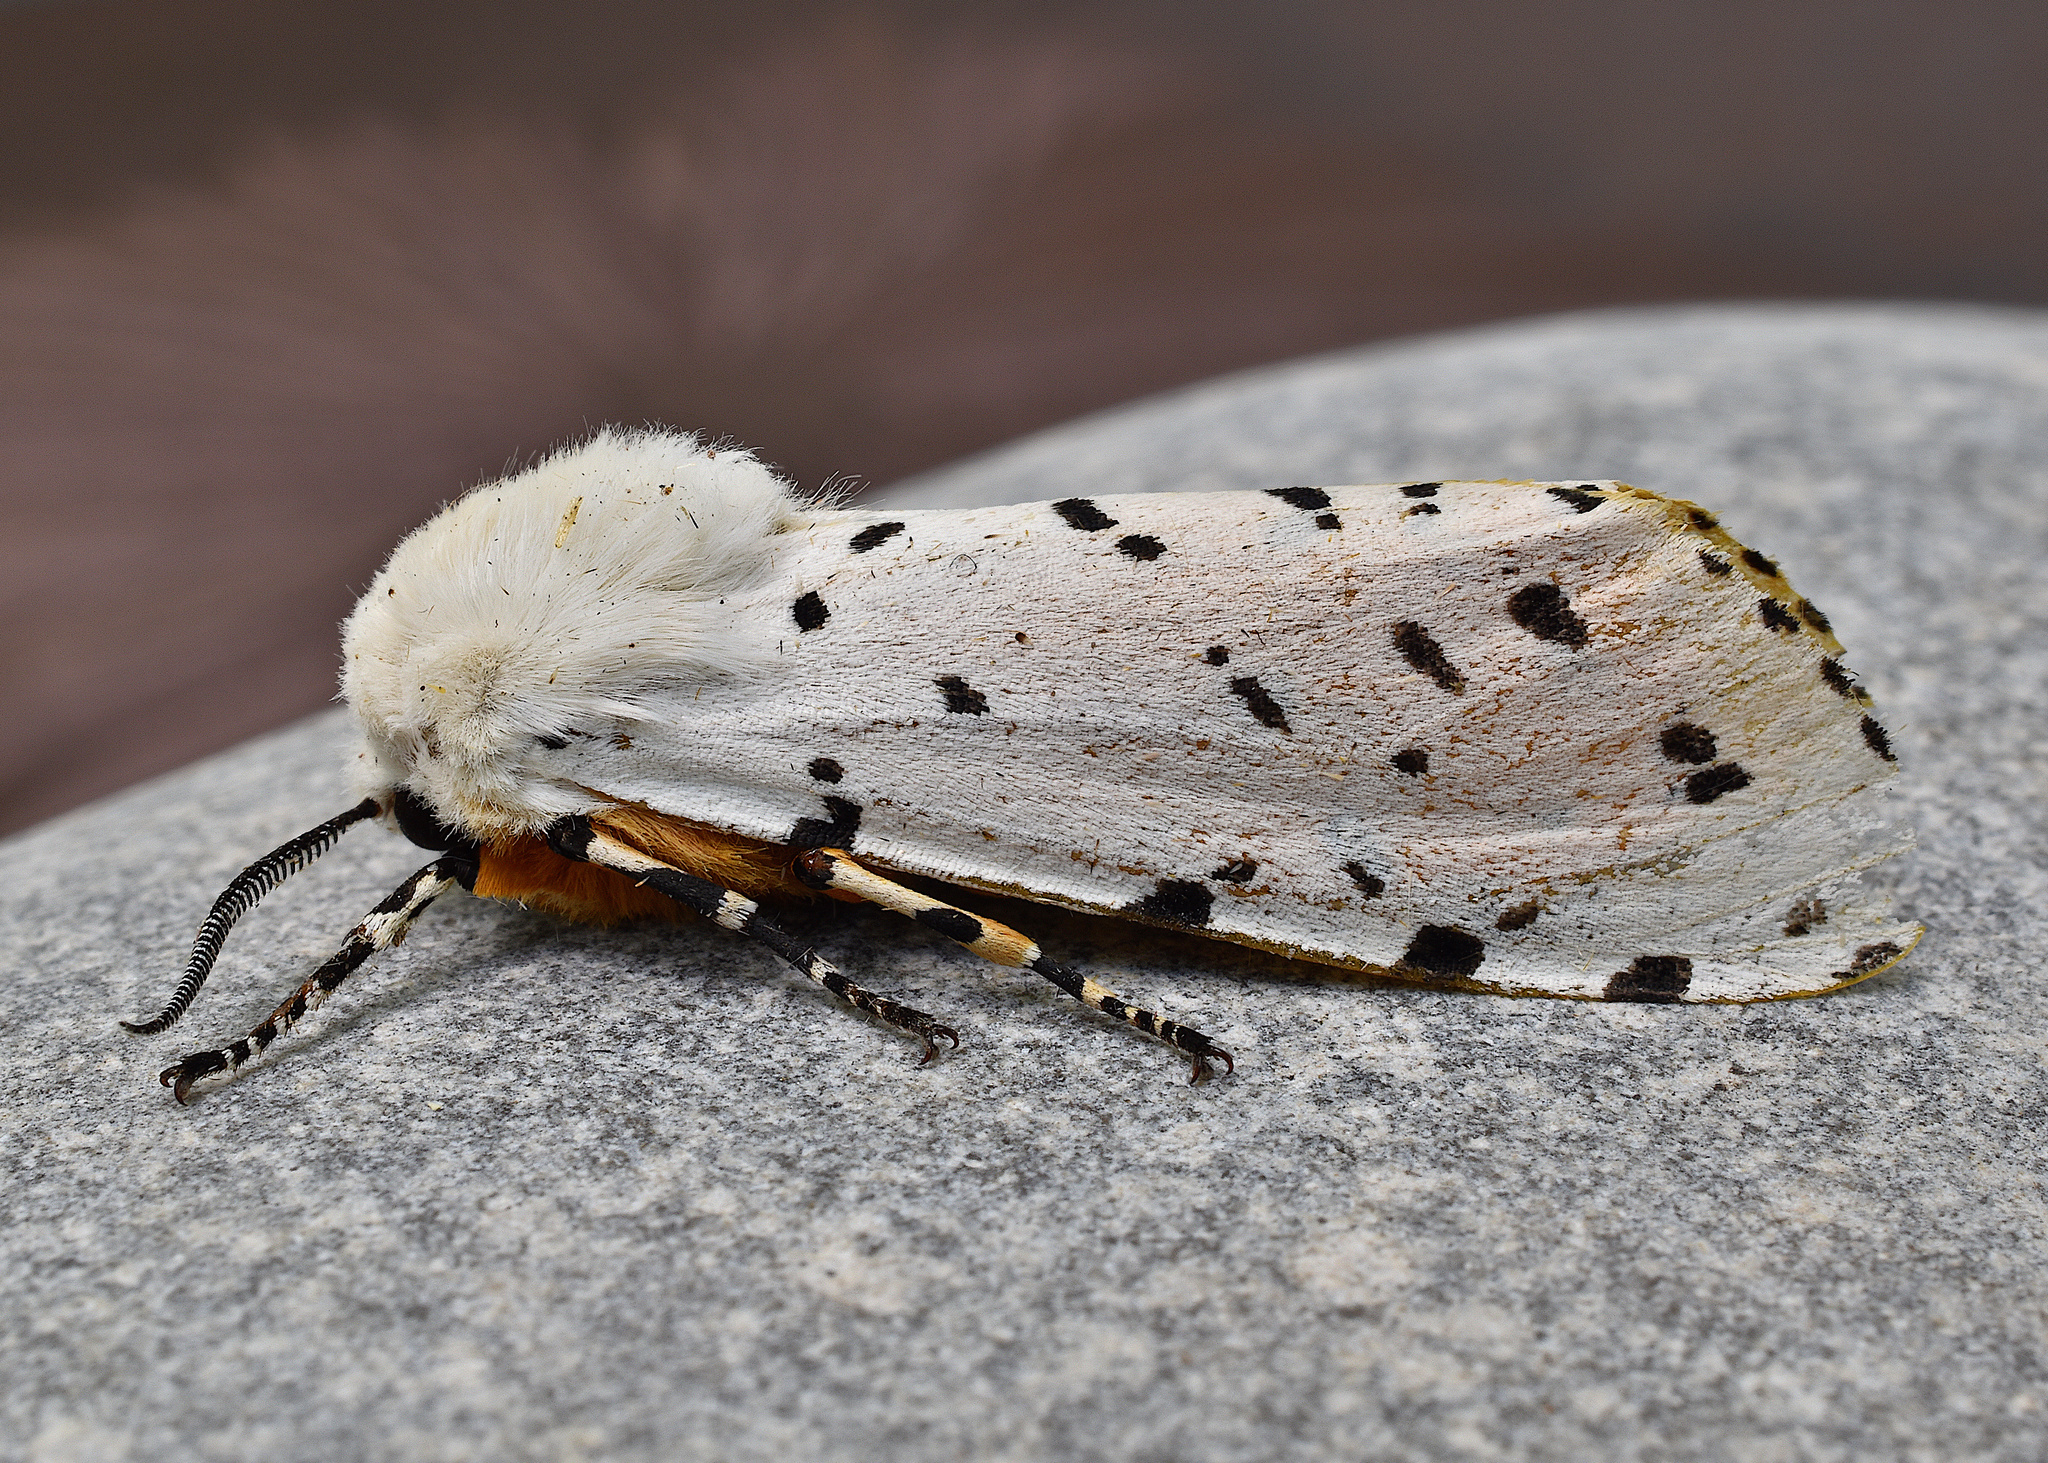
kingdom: Animalia
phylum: Arthropoda
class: Insecta
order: Lepidoptera
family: Erebidae
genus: Estigmene
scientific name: Estigmene acrea
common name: Salt marsh moth
